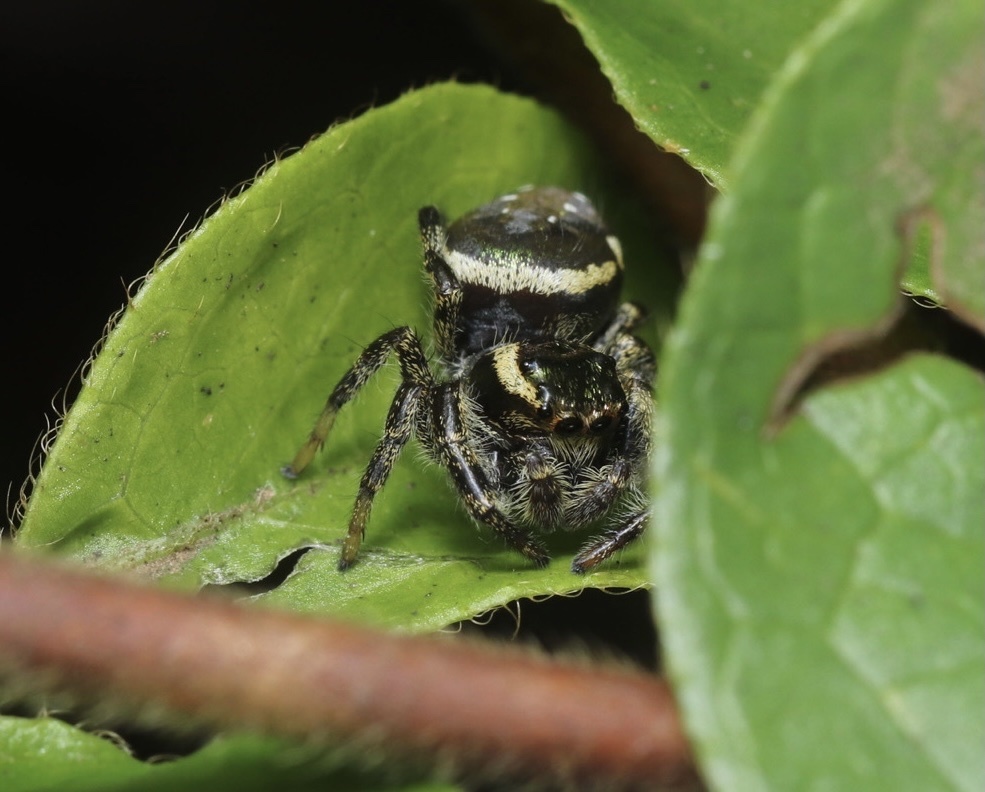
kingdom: Animalia
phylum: Arthropoda
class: Arachnida
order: Araneae
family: Salticidae
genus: Paraphidippus
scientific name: Paraphidippus aurantius
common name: Jumping spiders
